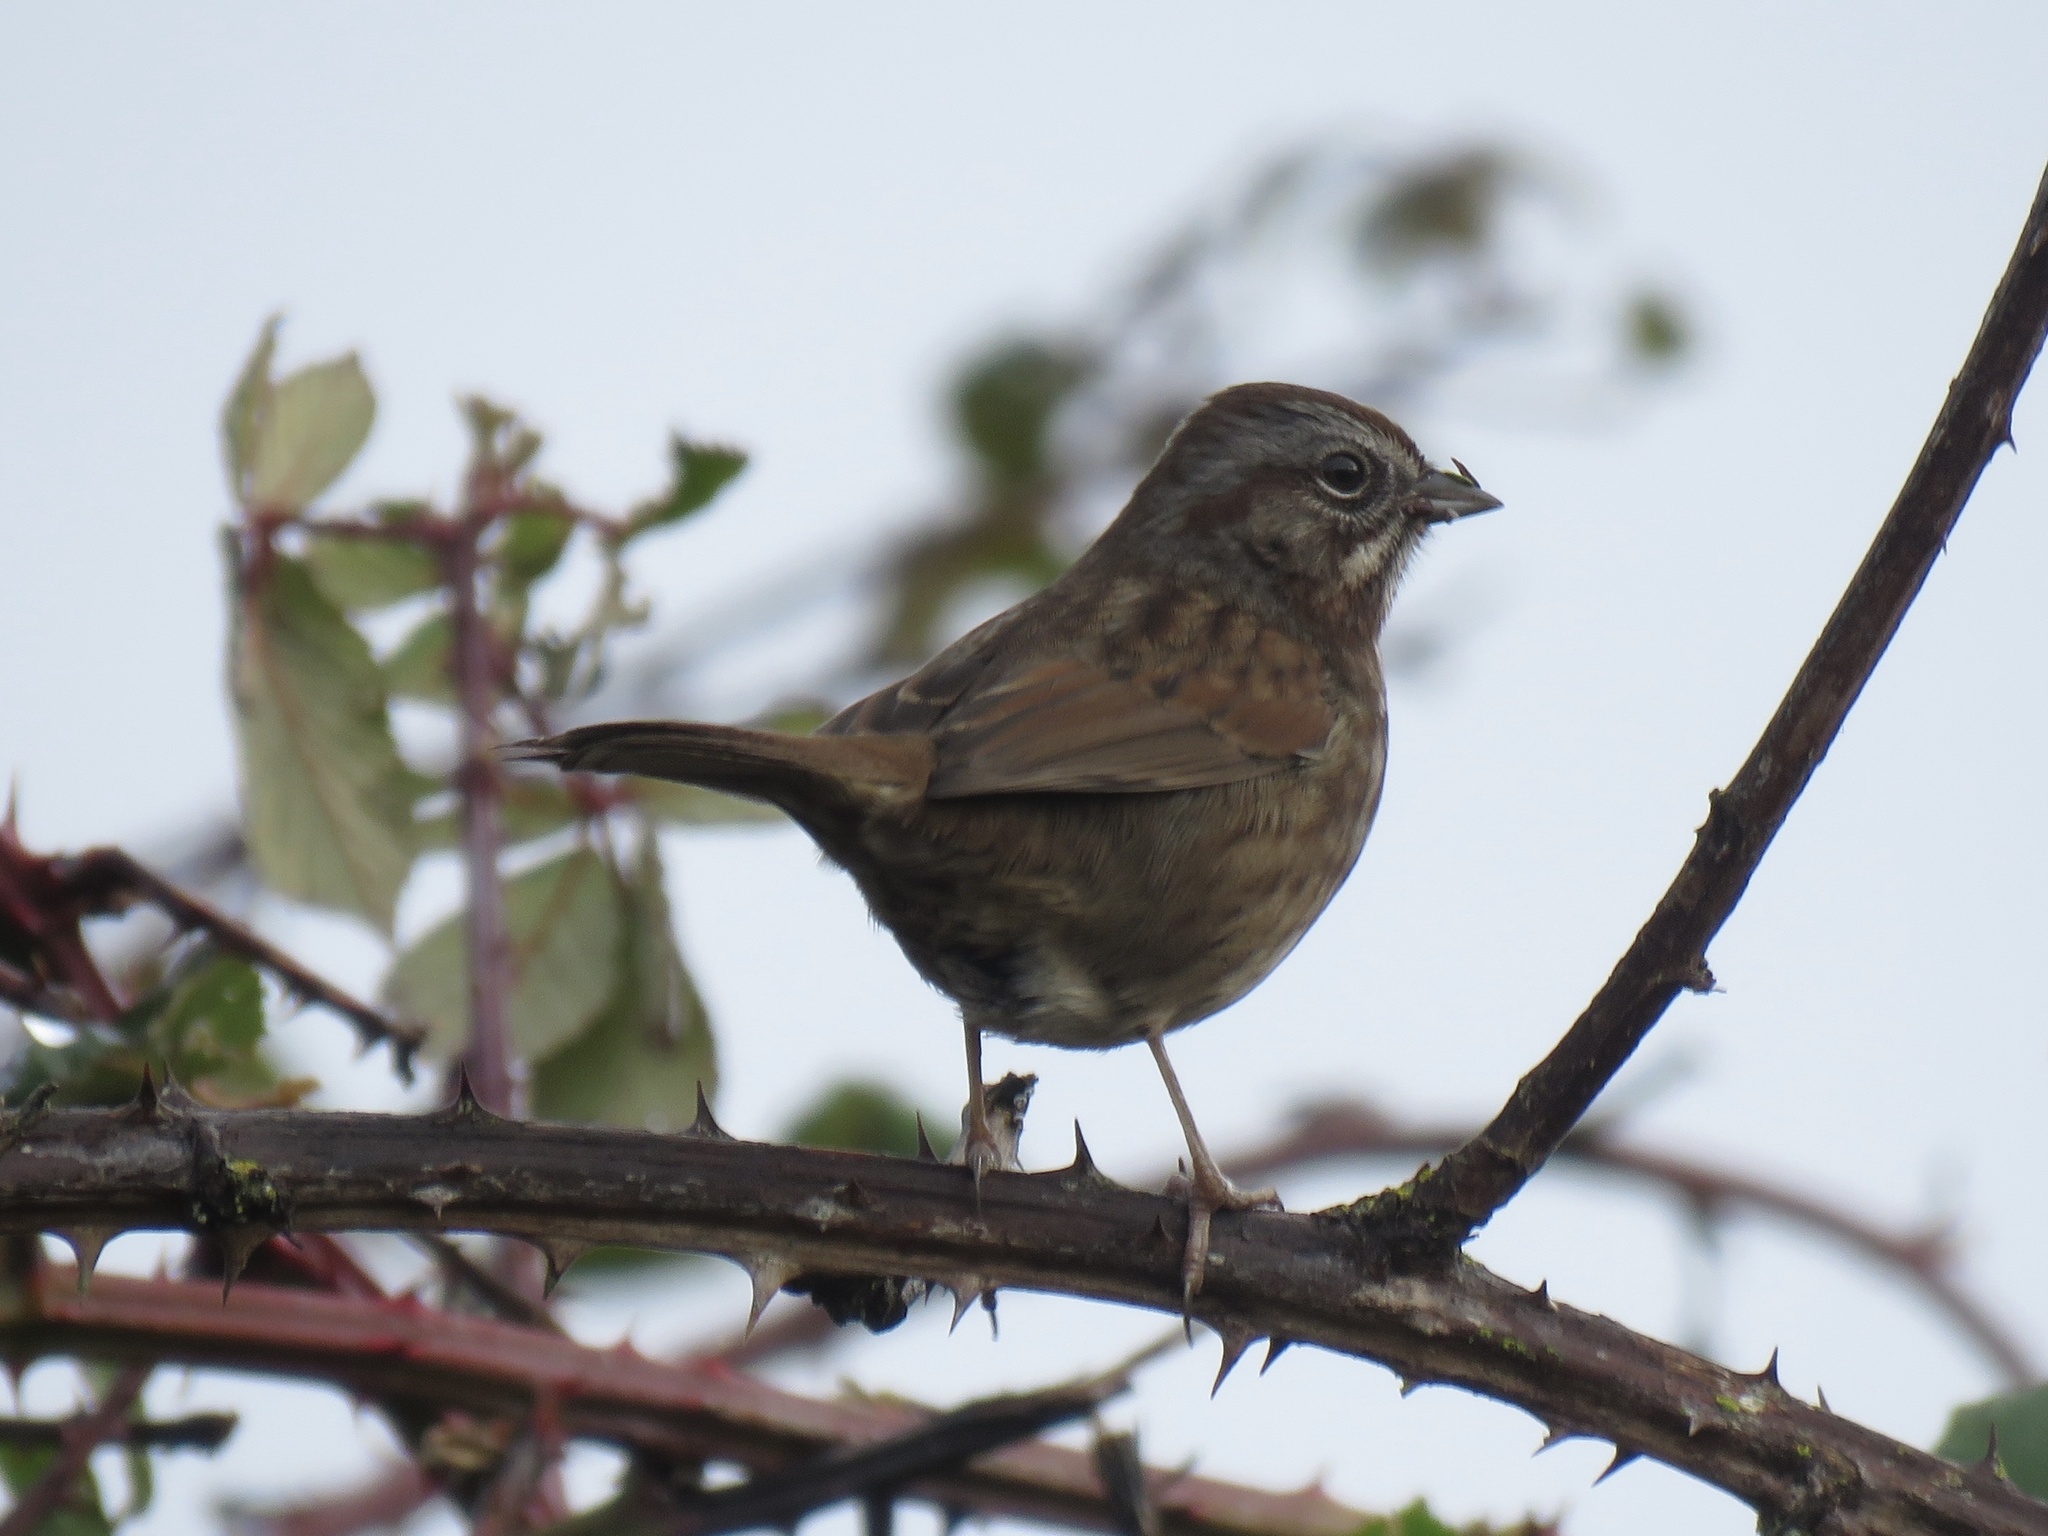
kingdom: Animalia
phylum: Chordata
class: Aves
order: Passeriformes
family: Passerellidae
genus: Melospiza
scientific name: Melospiza melodia
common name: Song sparrow
